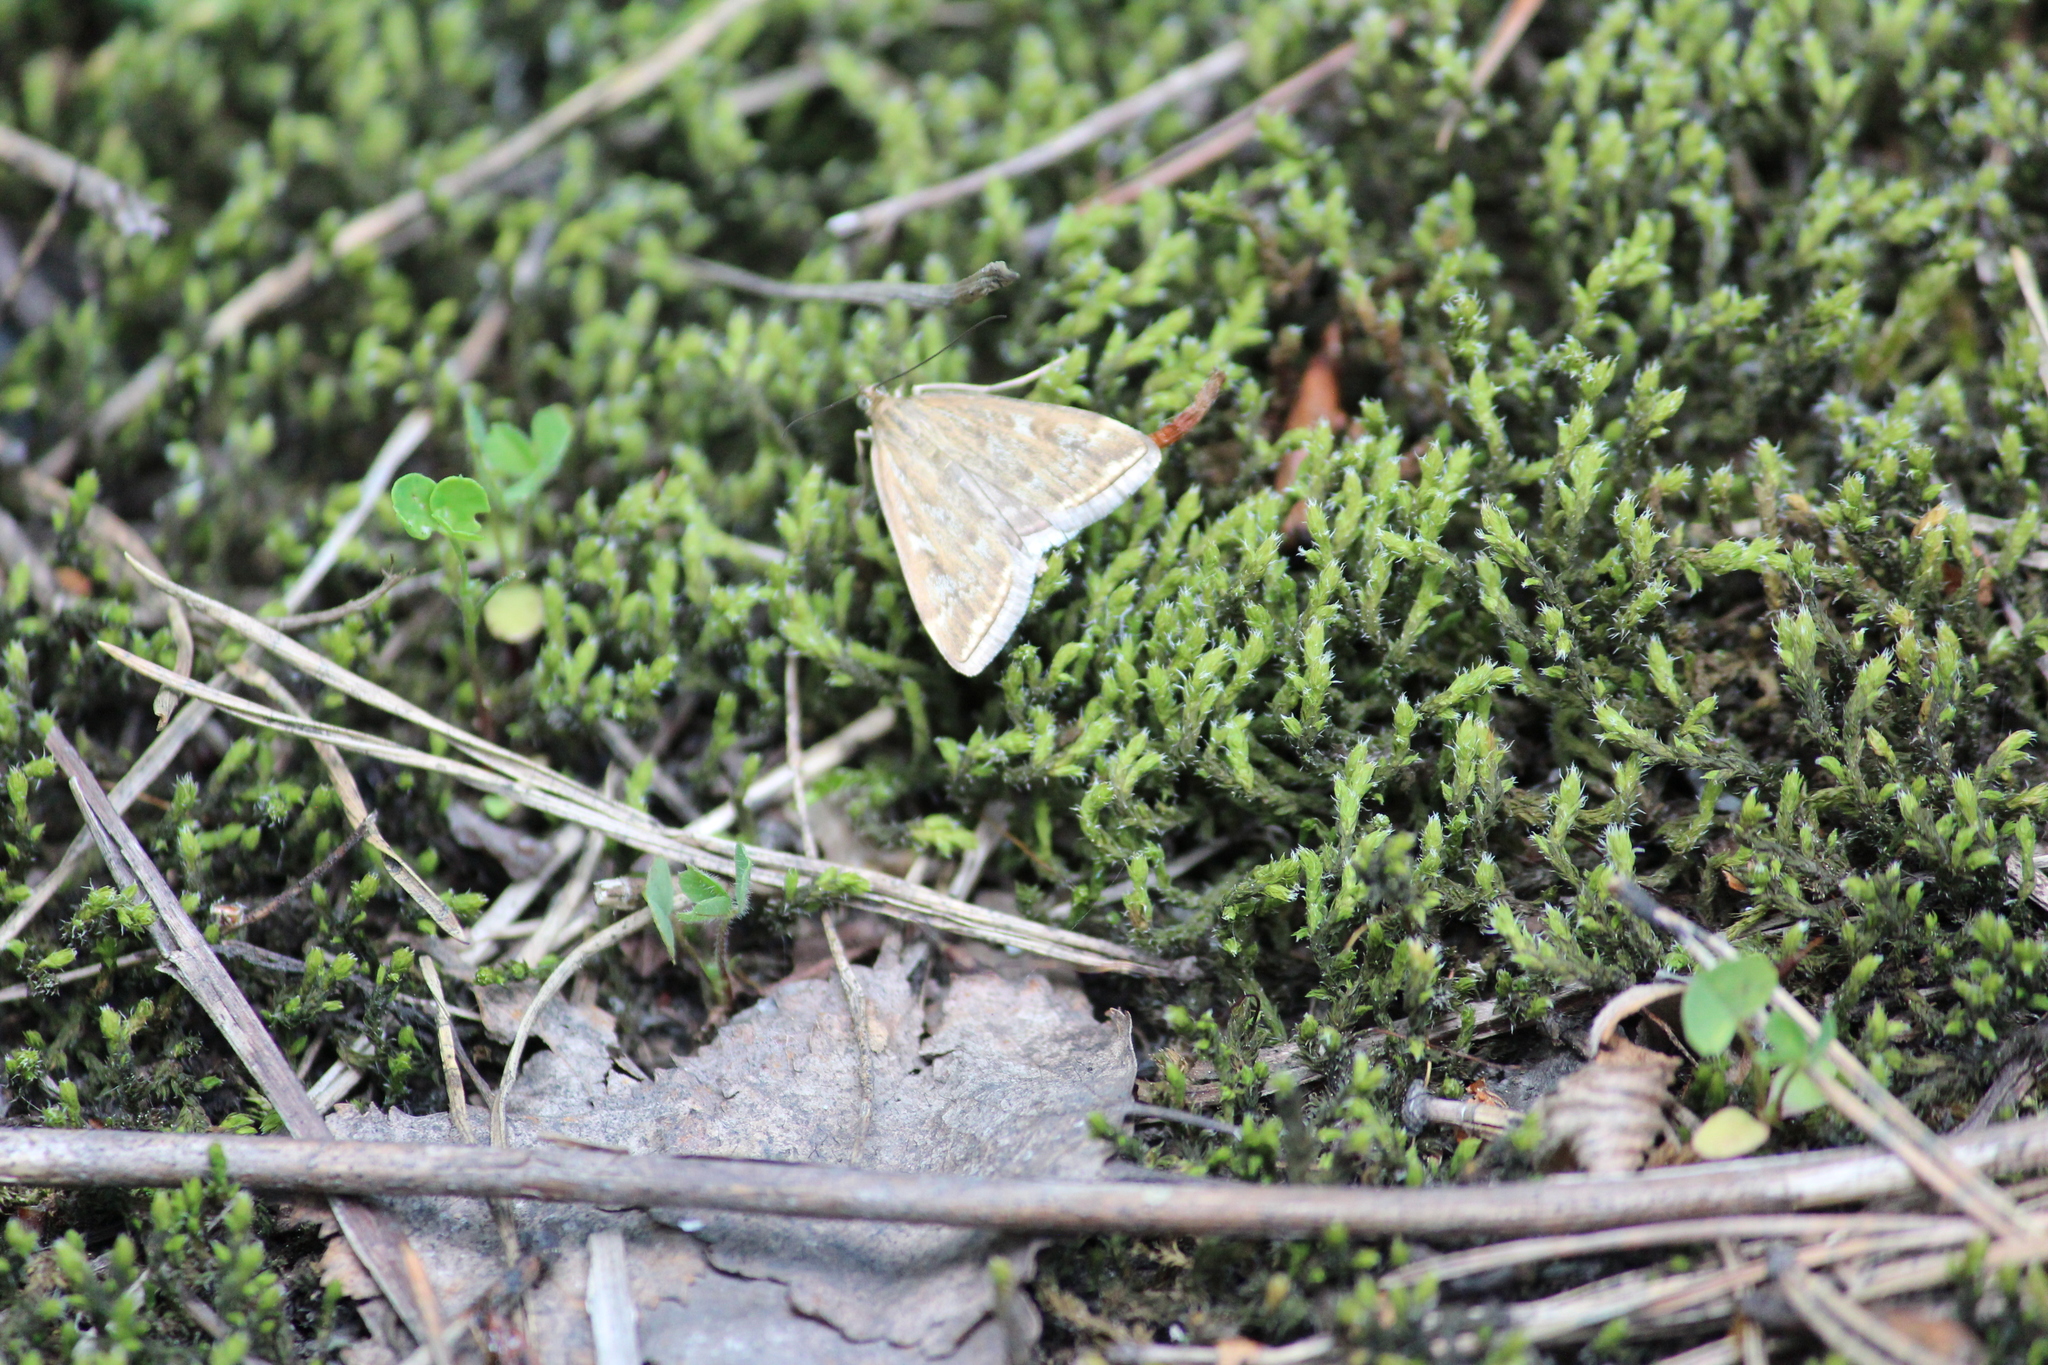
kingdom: Animalia
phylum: Arthropoda
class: Insecta
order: Lepidoptera
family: Crambidae
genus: Loxostege
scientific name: Loxostege sticticalis
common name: Crambid moth
